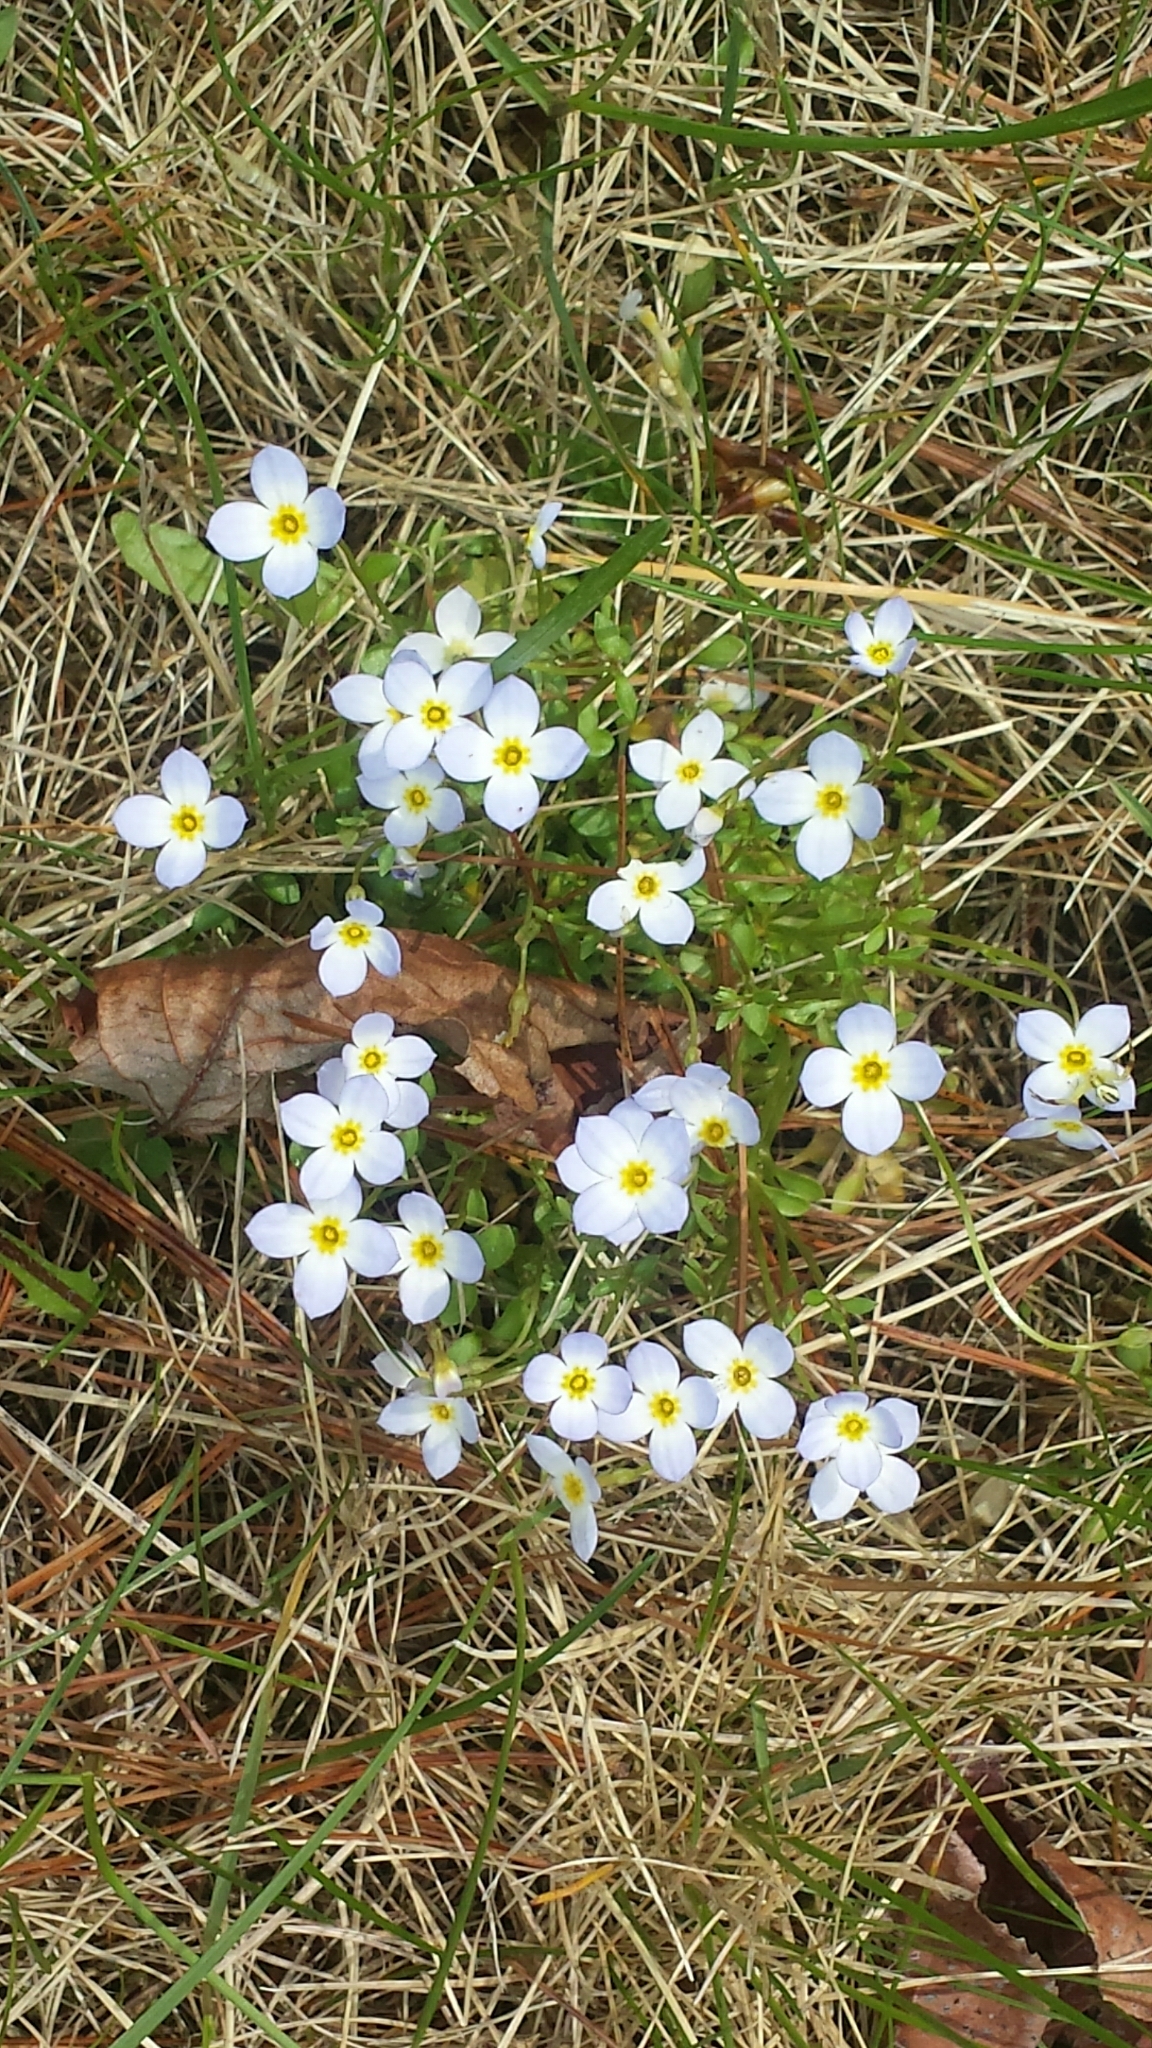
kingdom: Plantae
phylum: Tracheophyta
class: Magnoliopsida
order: Gentianales
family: Rubiaceae
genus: Houstonia
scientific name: Houstonia caerulea
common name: Bluets
